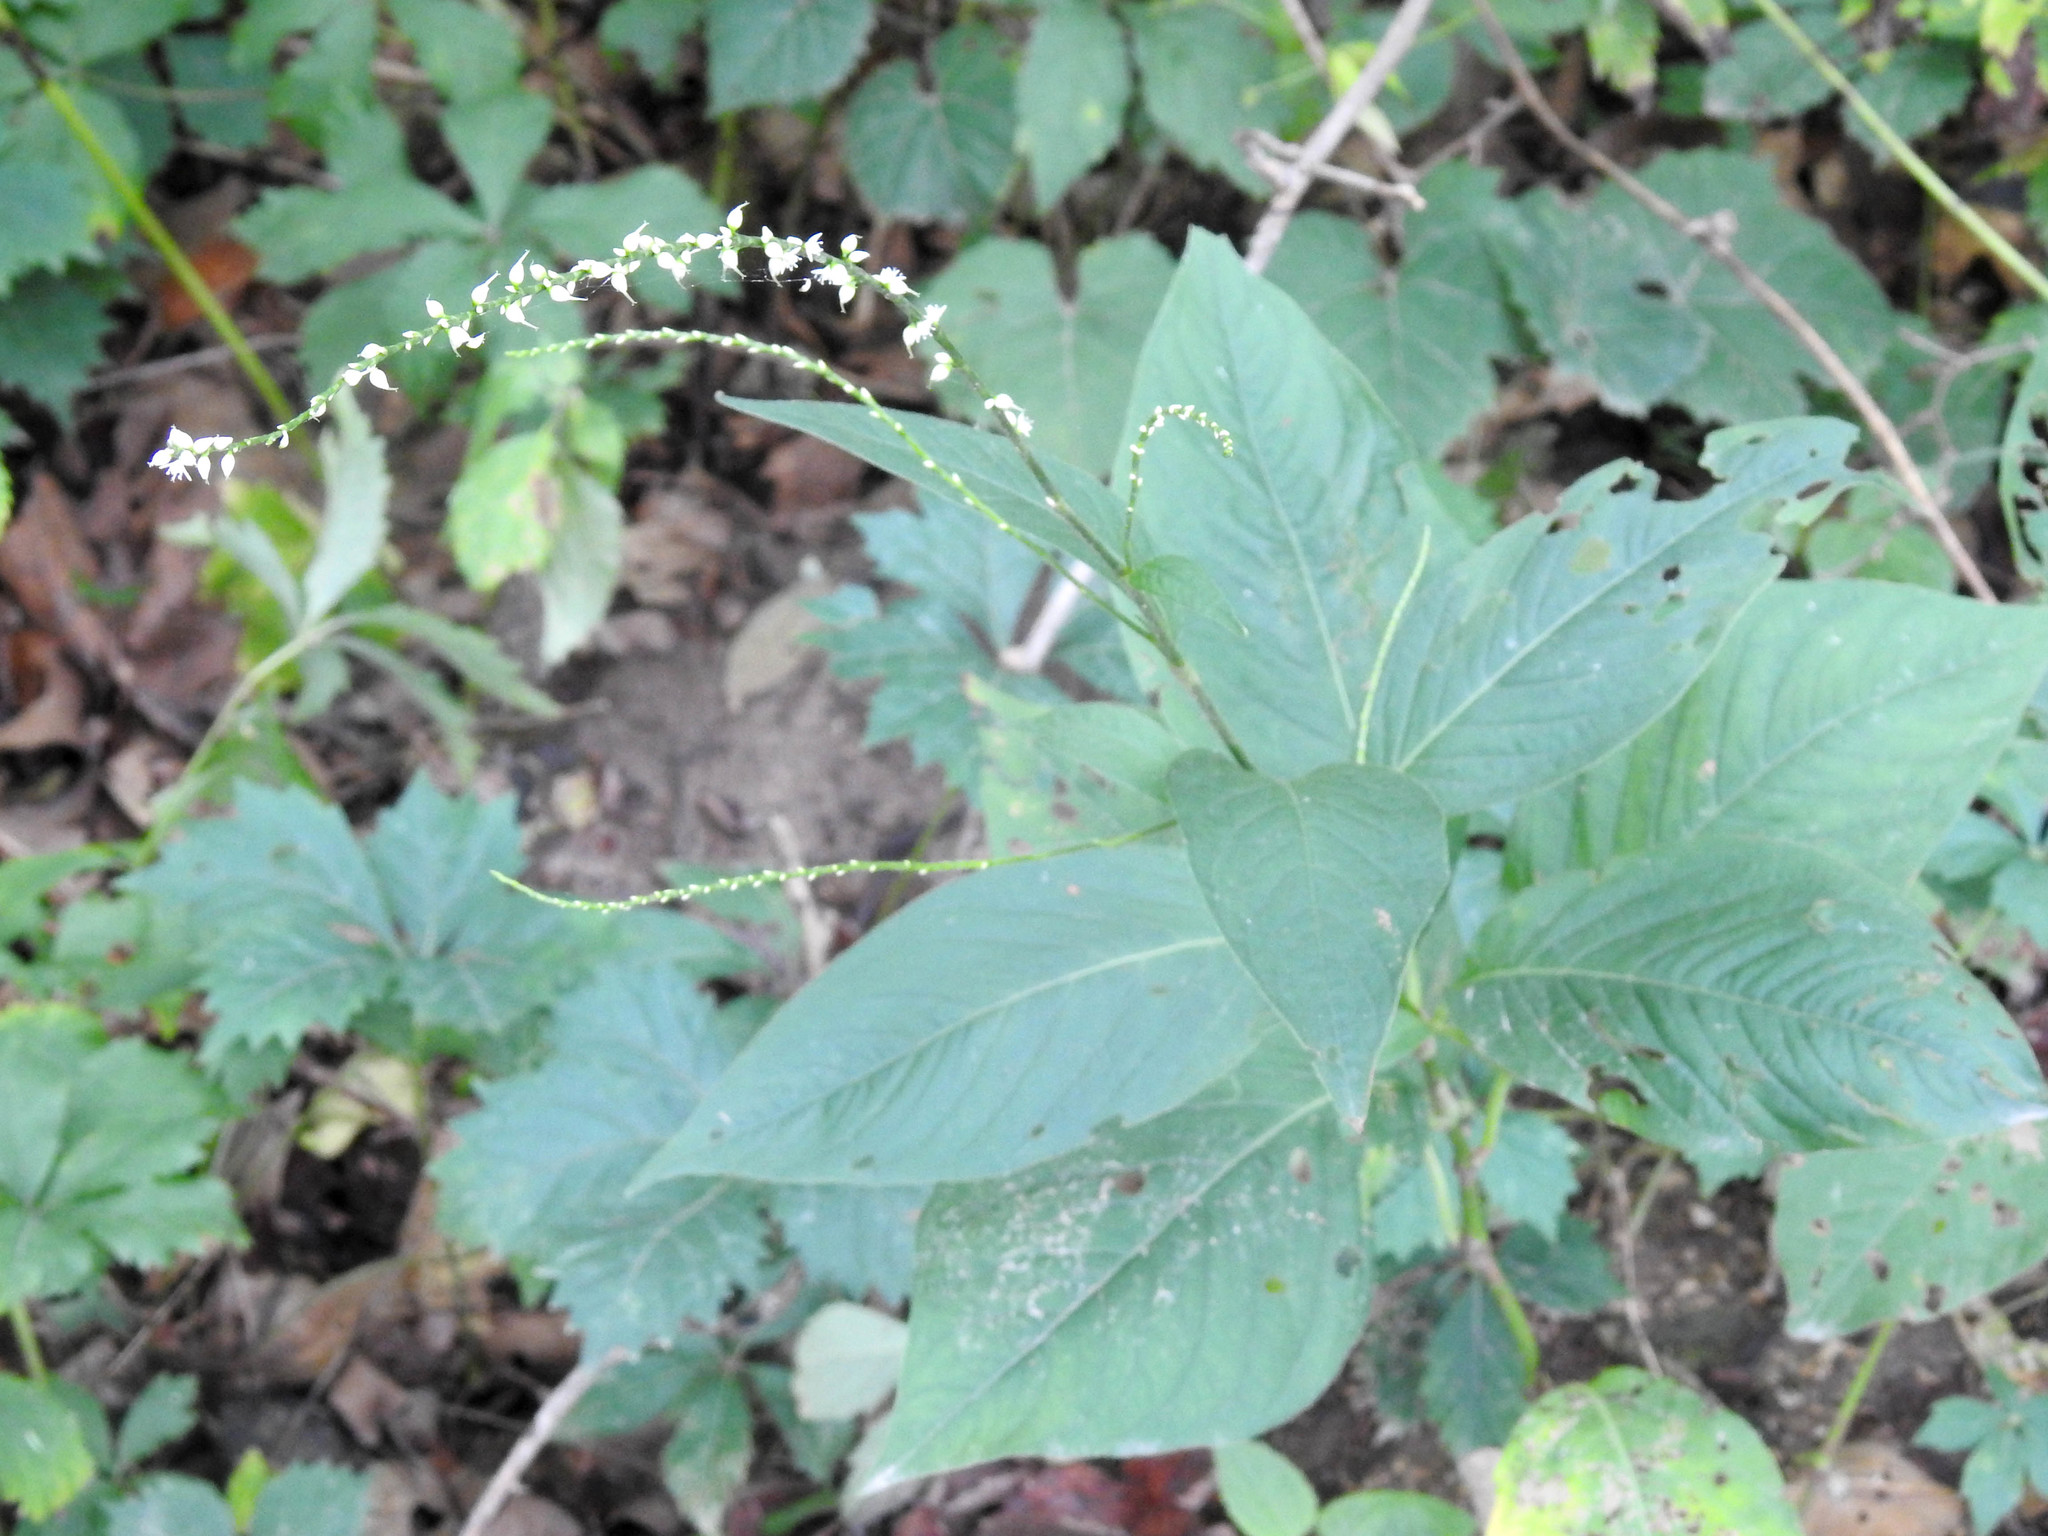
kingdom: Plantae
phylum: Tracheophyta
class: Magnoliopsida
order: Caryophyllales
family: Polygonaceae
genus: Persicaria
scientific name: Persicaria virginiana
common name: Jumpseed
